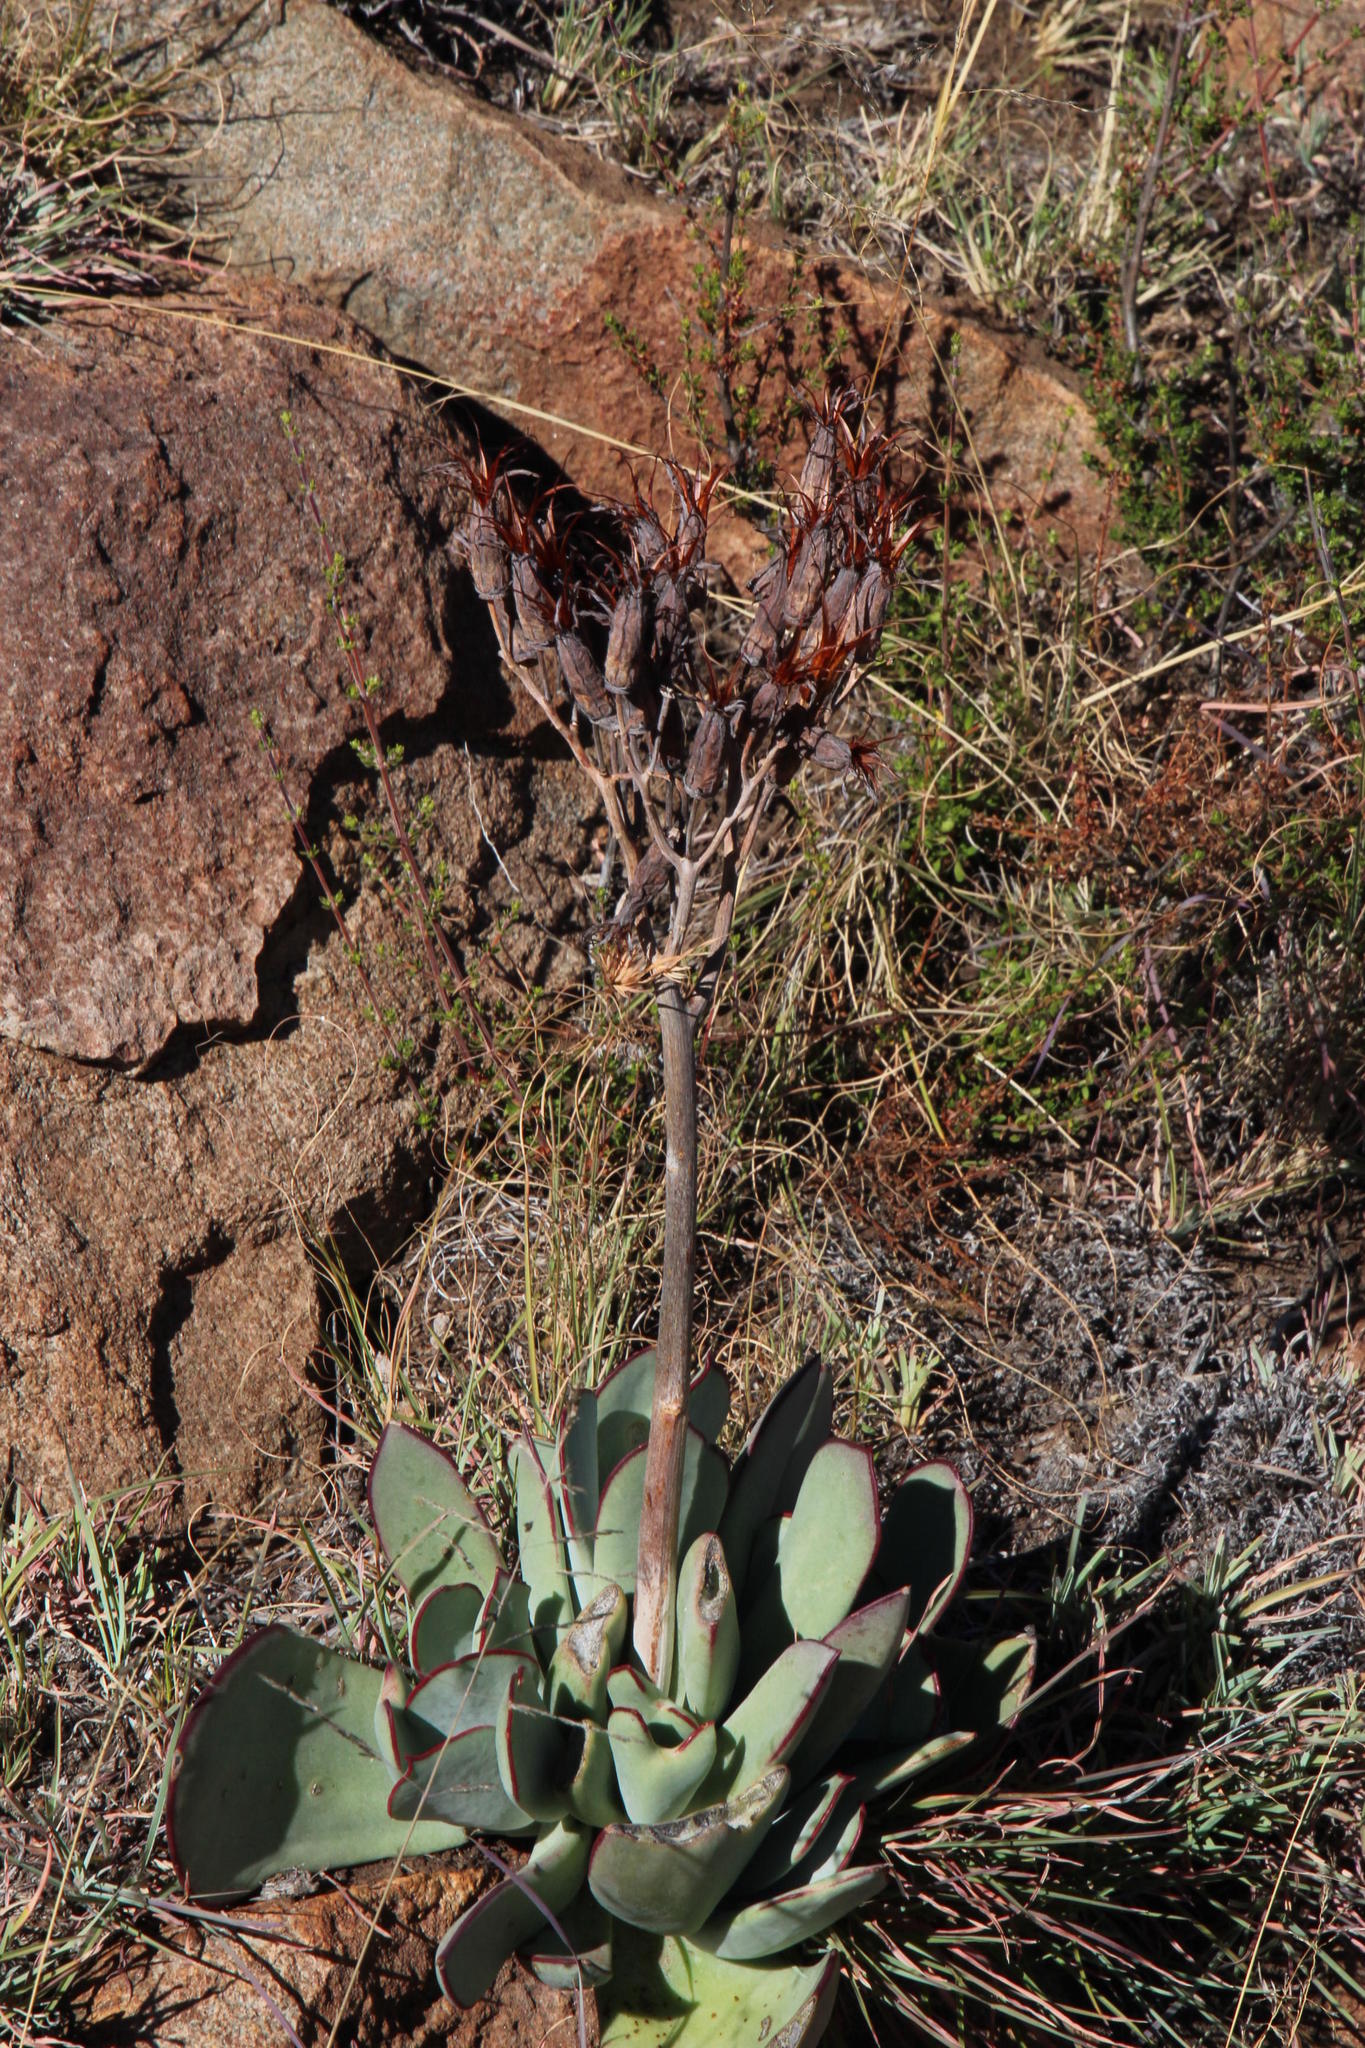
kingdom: Plantae
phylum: Tracheophyta
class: Magnoliopsida
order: Saxifragales
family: Crassulaceae
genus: Cotyledon
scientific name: Cotyledon orbiculata
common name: Pig's ear
